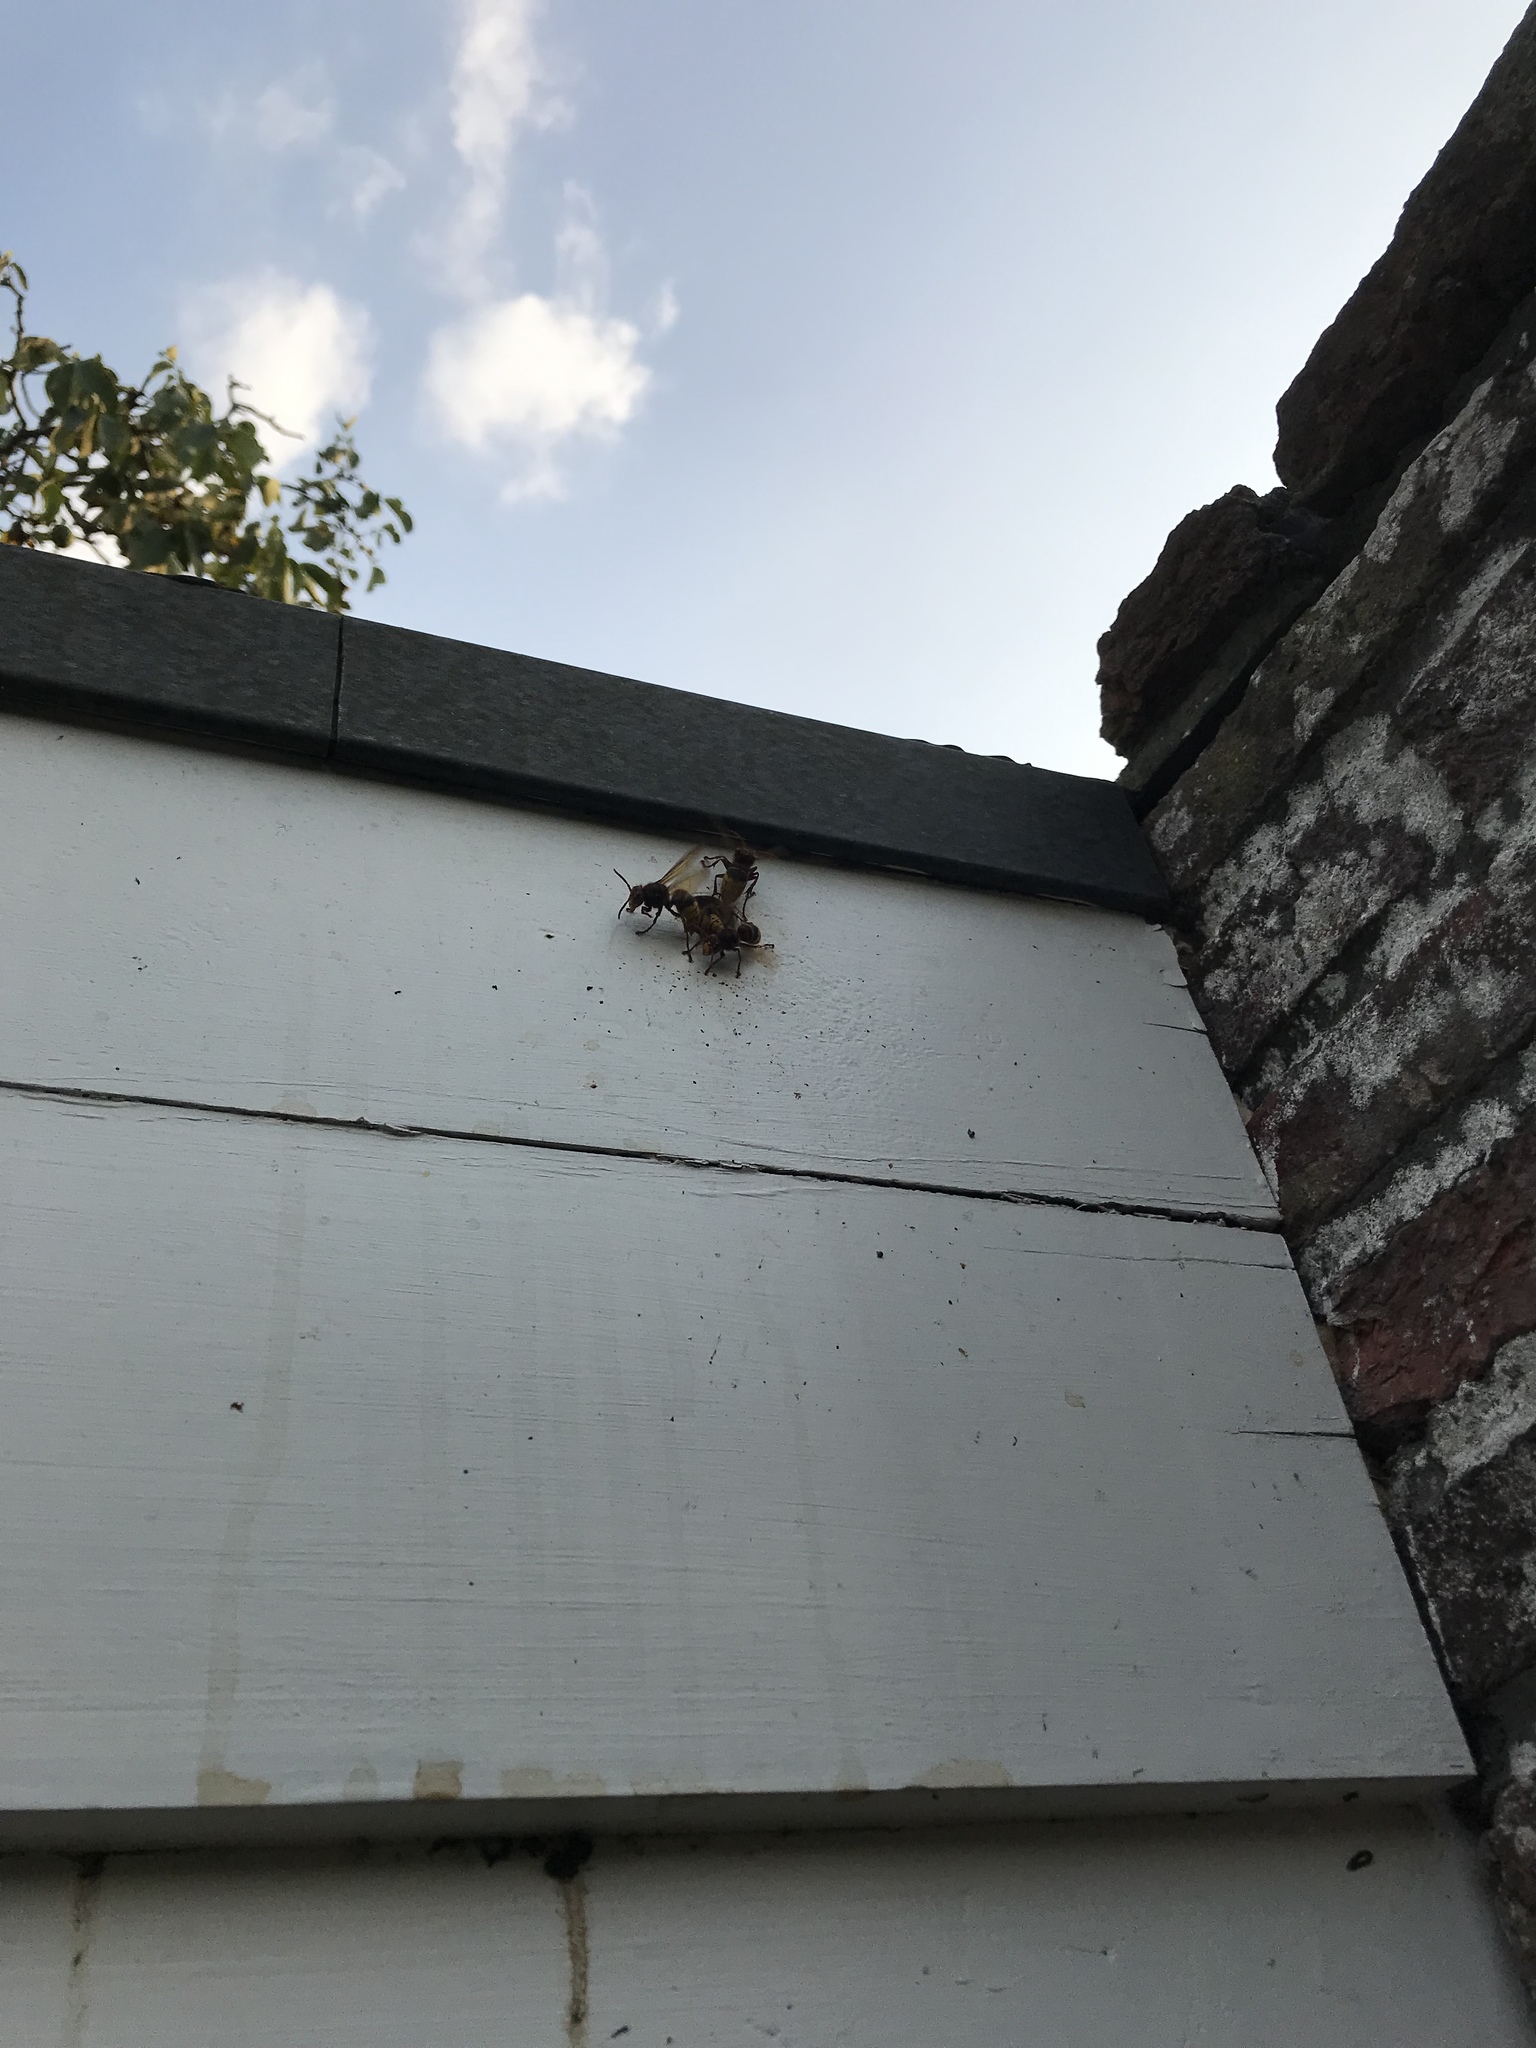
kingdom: Animalia
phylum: Arthropoda
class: Insecta
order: Hymenoptera
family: Vespidae
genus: Vespa
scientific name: Vespa crabro
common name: Hornet
